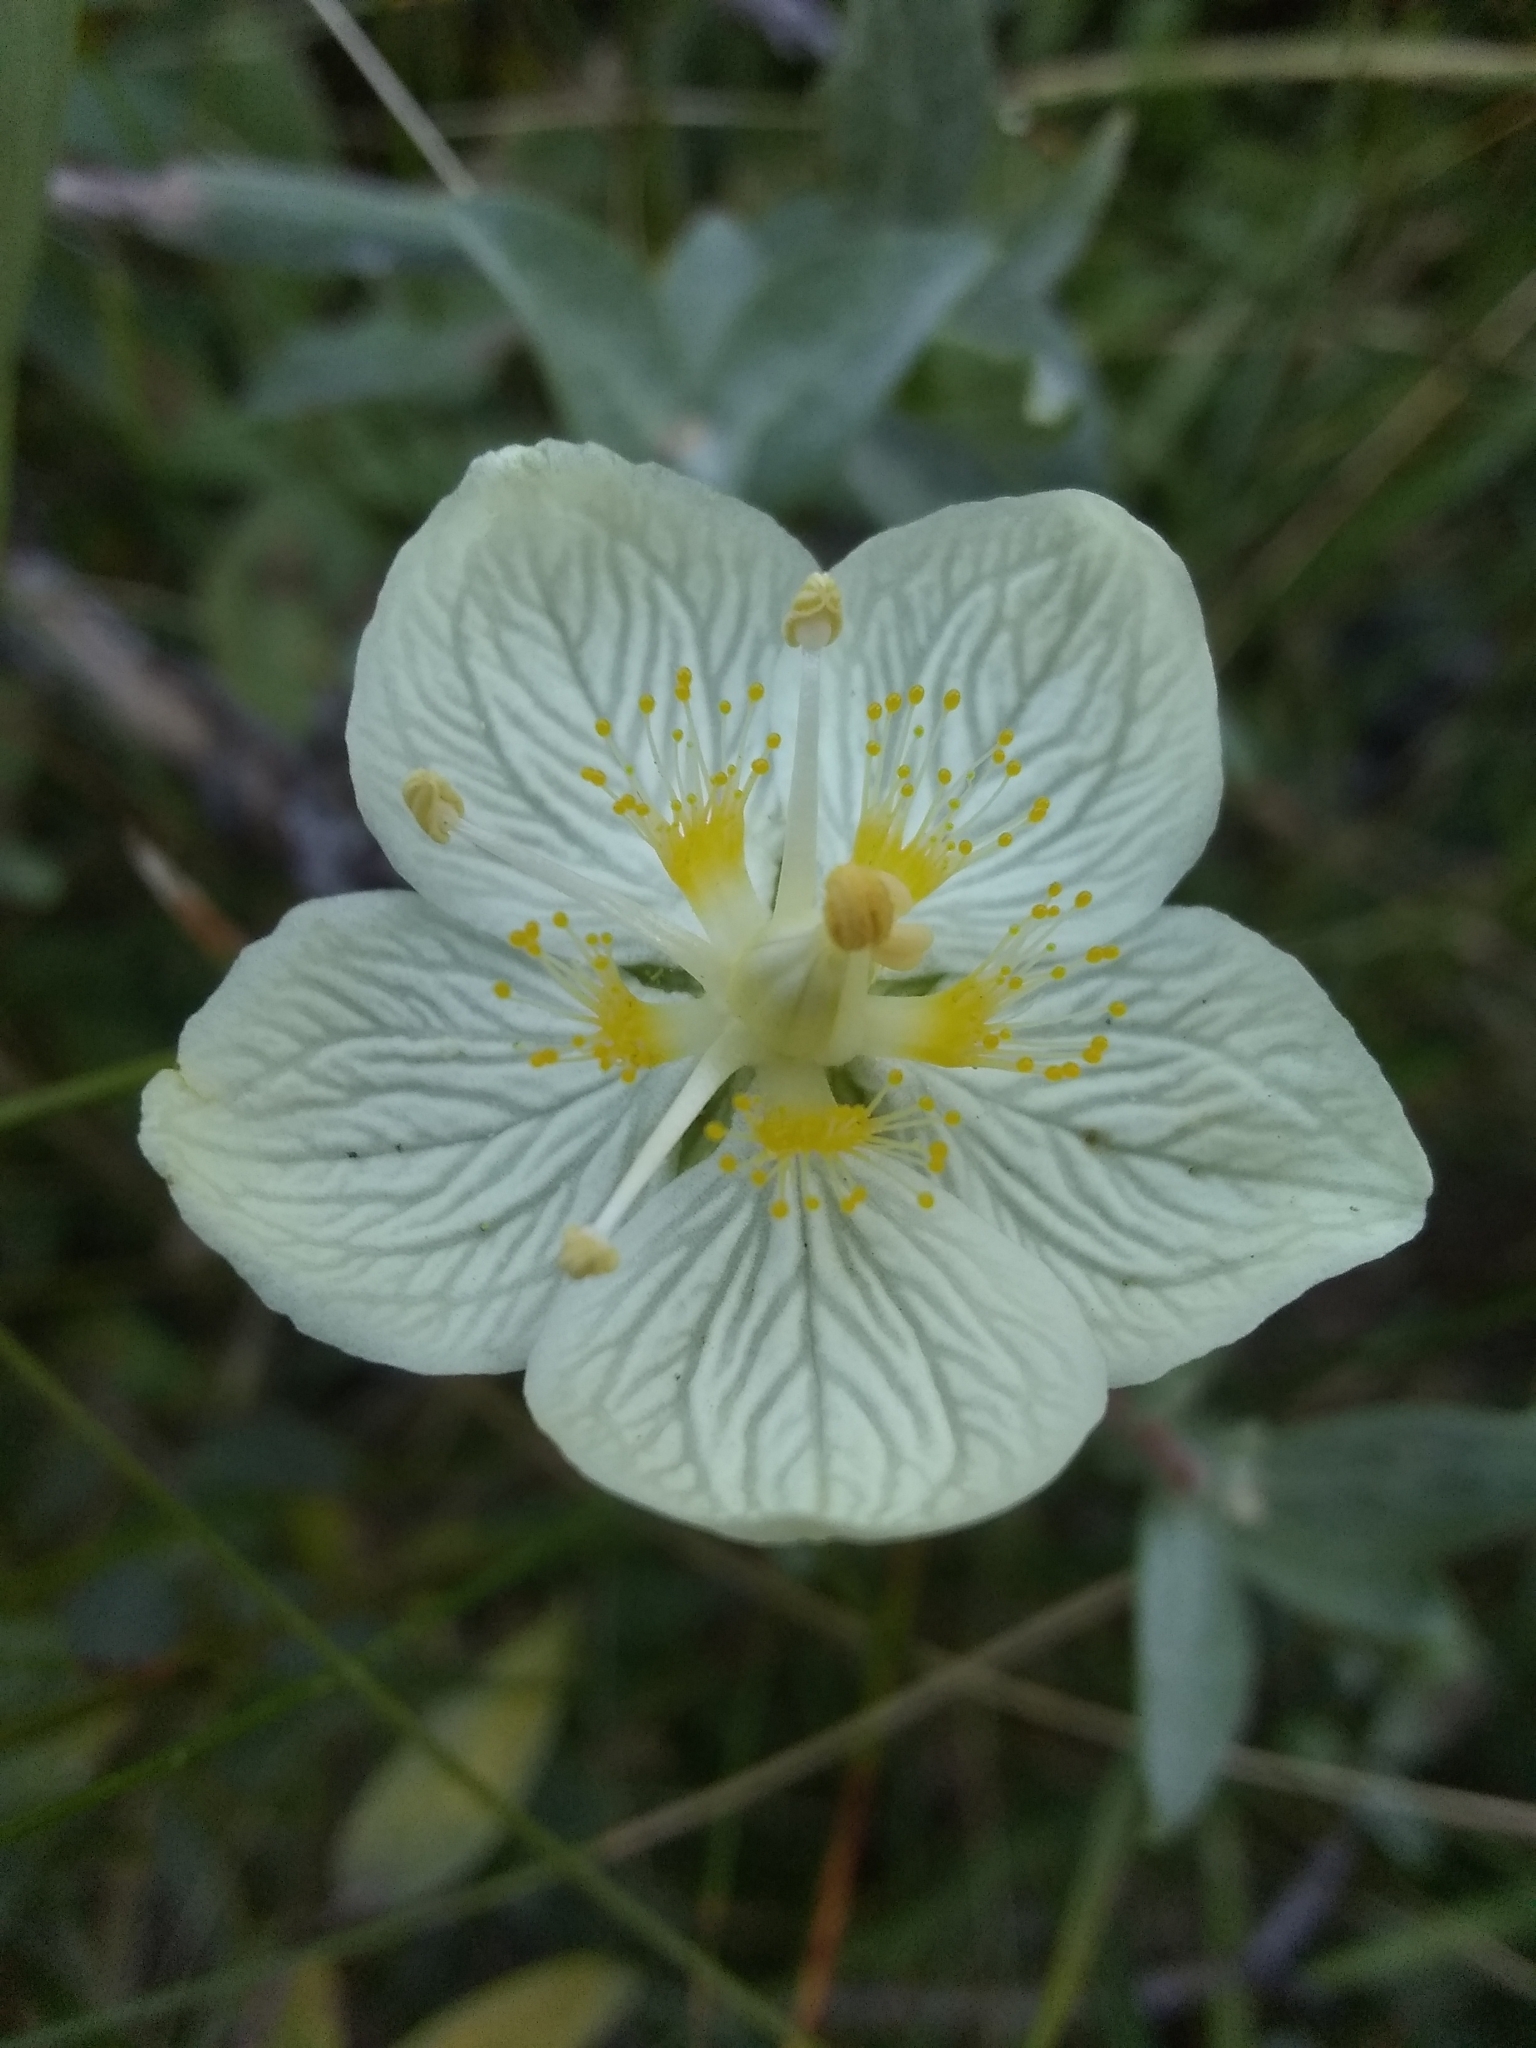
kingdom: Plantae
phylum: Tracheophyta
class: Magnoliopsida
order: Celastrales
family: Parnassiaceae
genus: Parnassia
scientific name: Parnassia palustris
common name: Grass-of-parnassus
